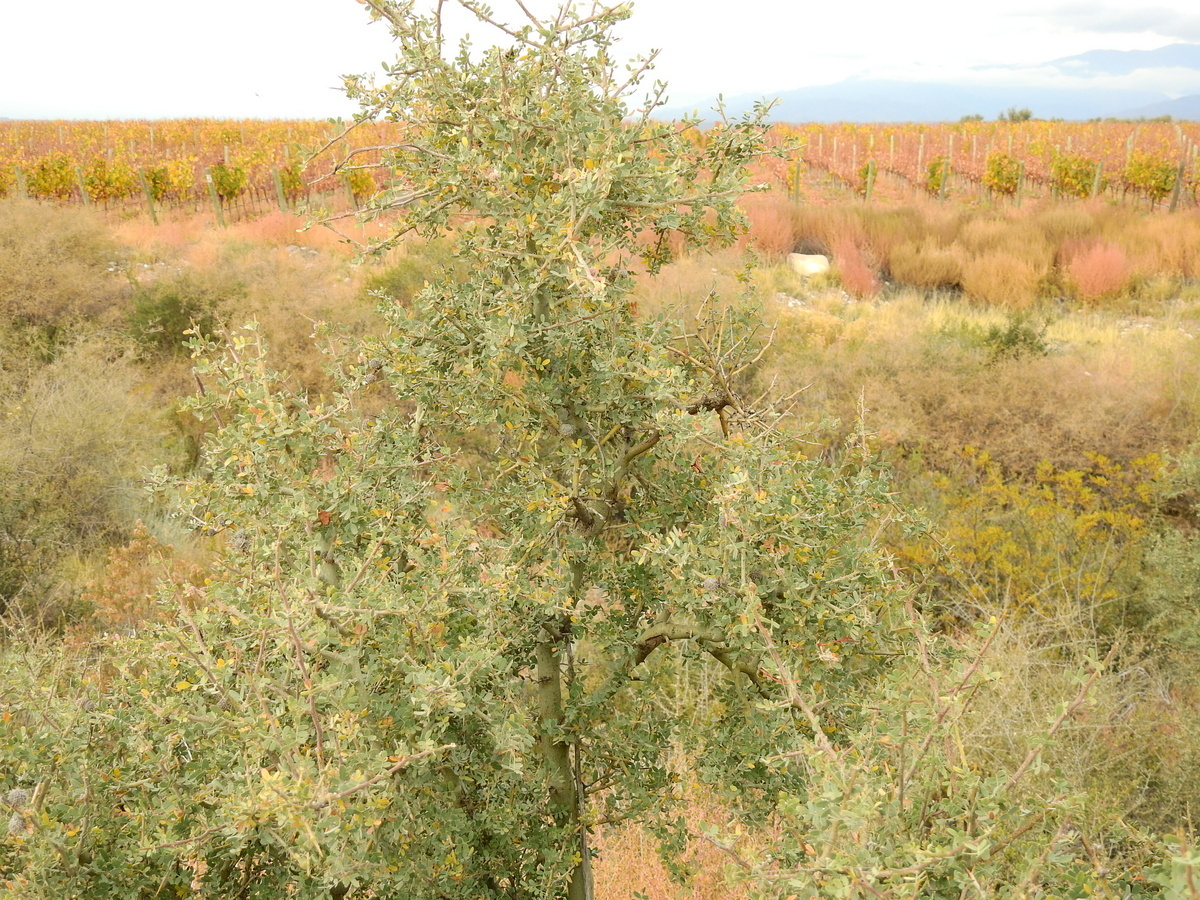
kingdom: Plantae
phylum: Tracheophyta
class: Magnoliopsida
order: Fabales
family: Fabaceae
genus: Geoffroea
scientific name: Geoffroea decorticans
